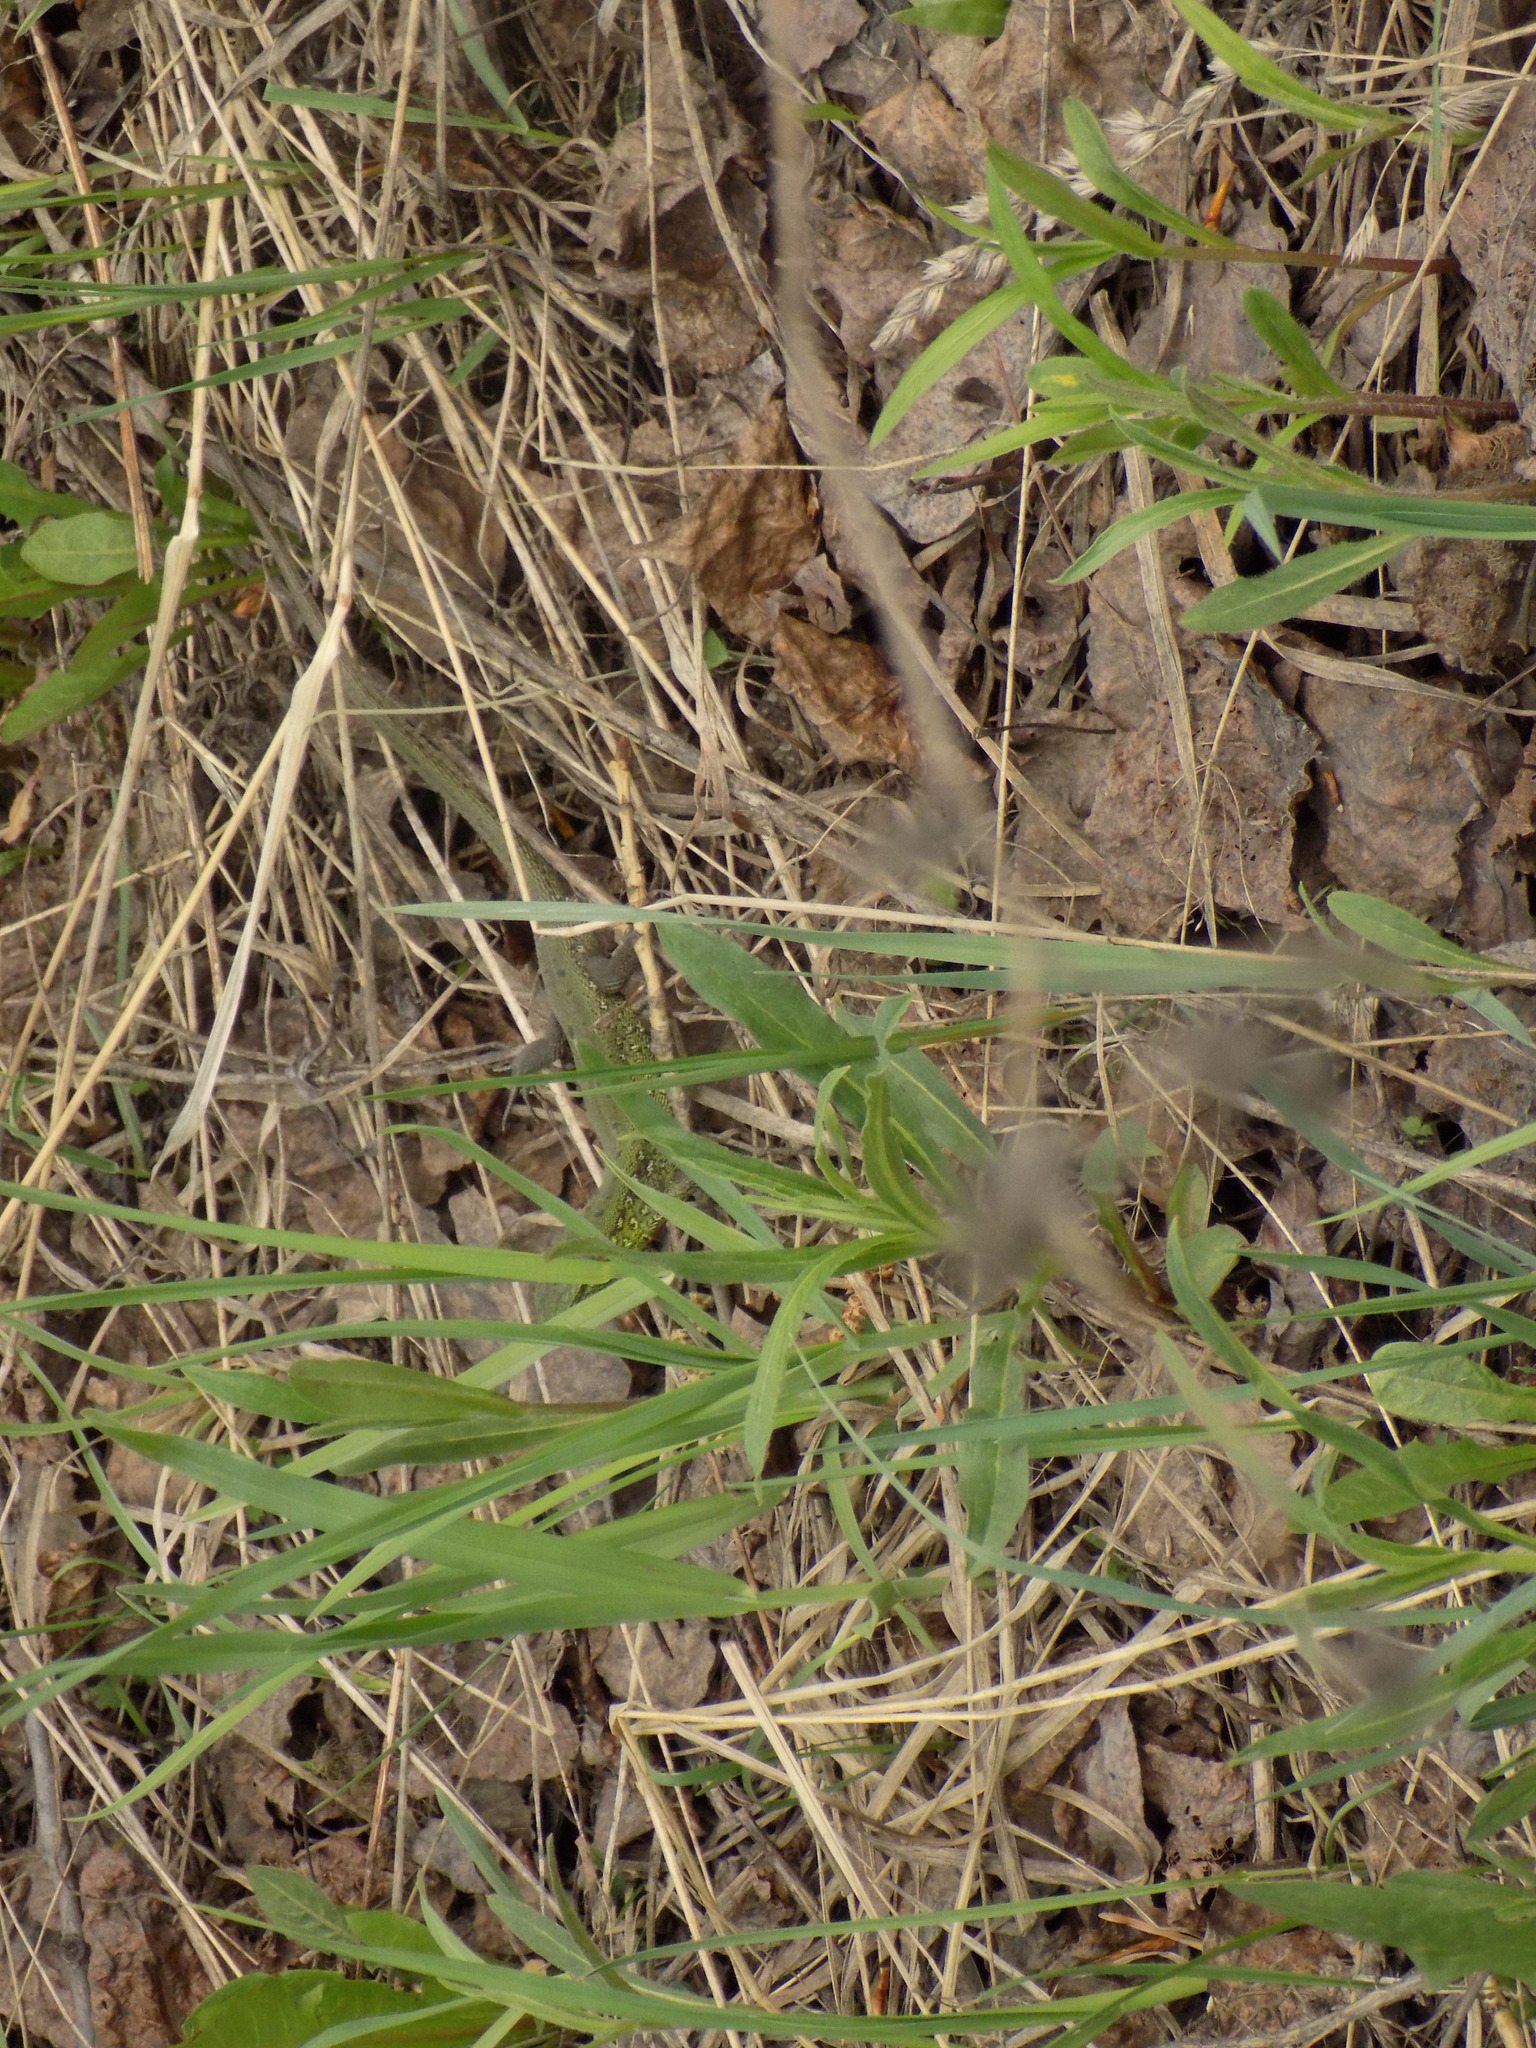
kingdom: Animalia
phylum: Chordata
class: Squamata
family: Lacertidae
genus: Lacerta
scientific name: Lacerta agilis
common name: Sand lizard
